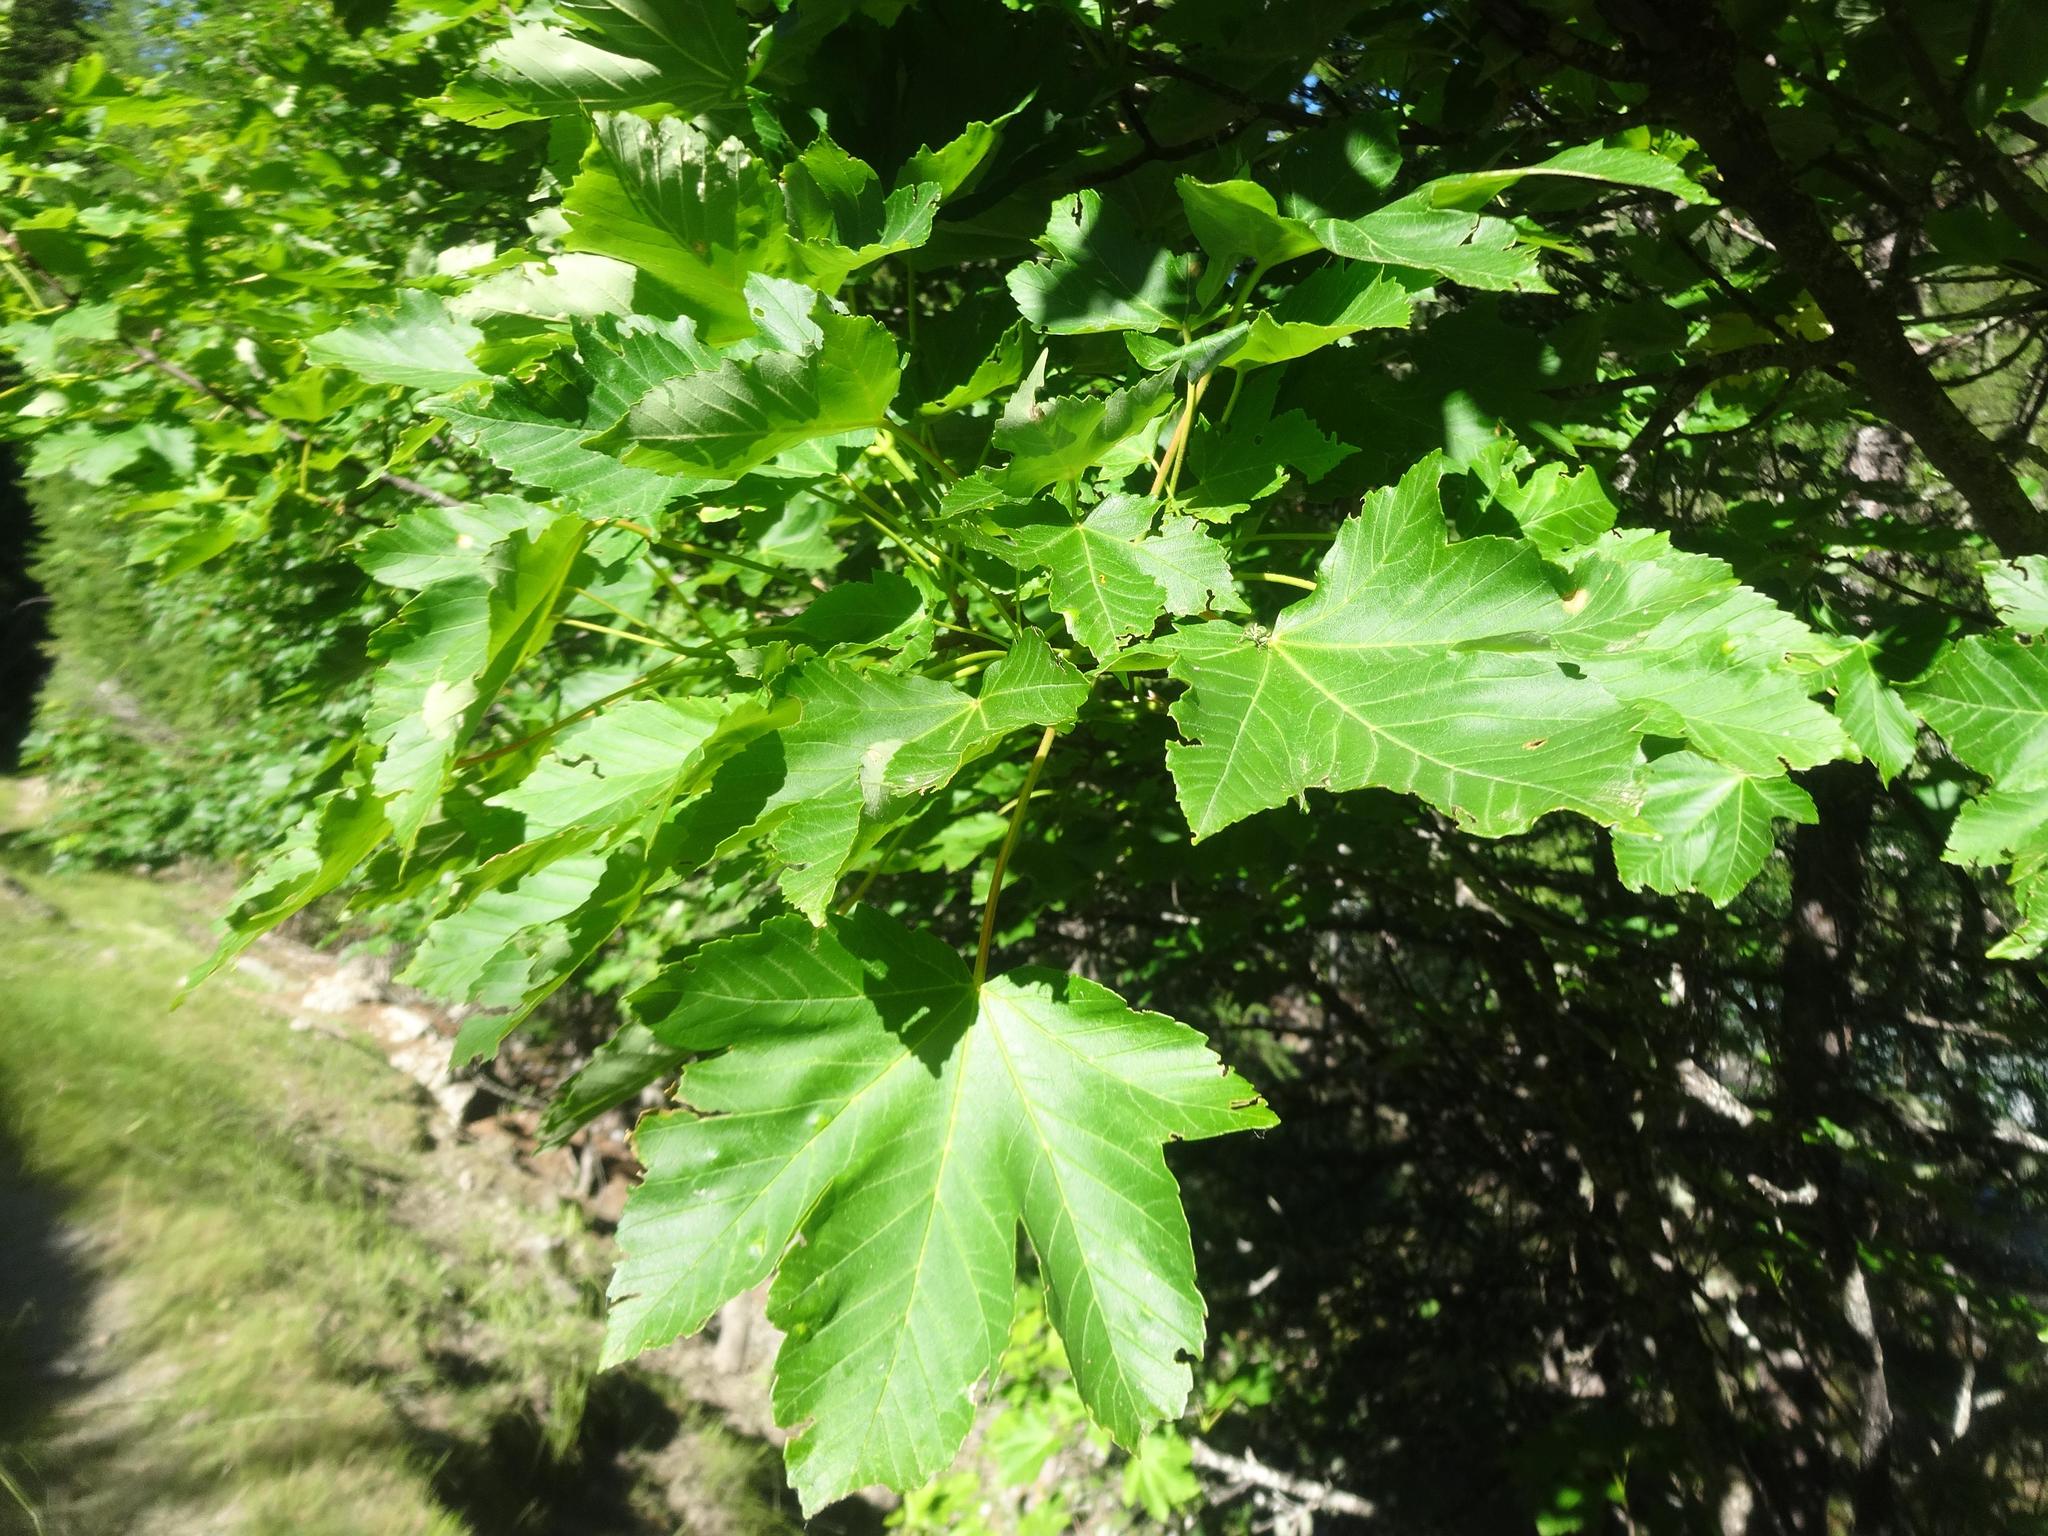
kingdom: Plantae
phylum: Tracheophyta
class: Magnoliopsida
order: Sapindales
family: Sapindaceae
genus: Acer
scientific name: Acer pseudoplatanus
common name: Sycamore
